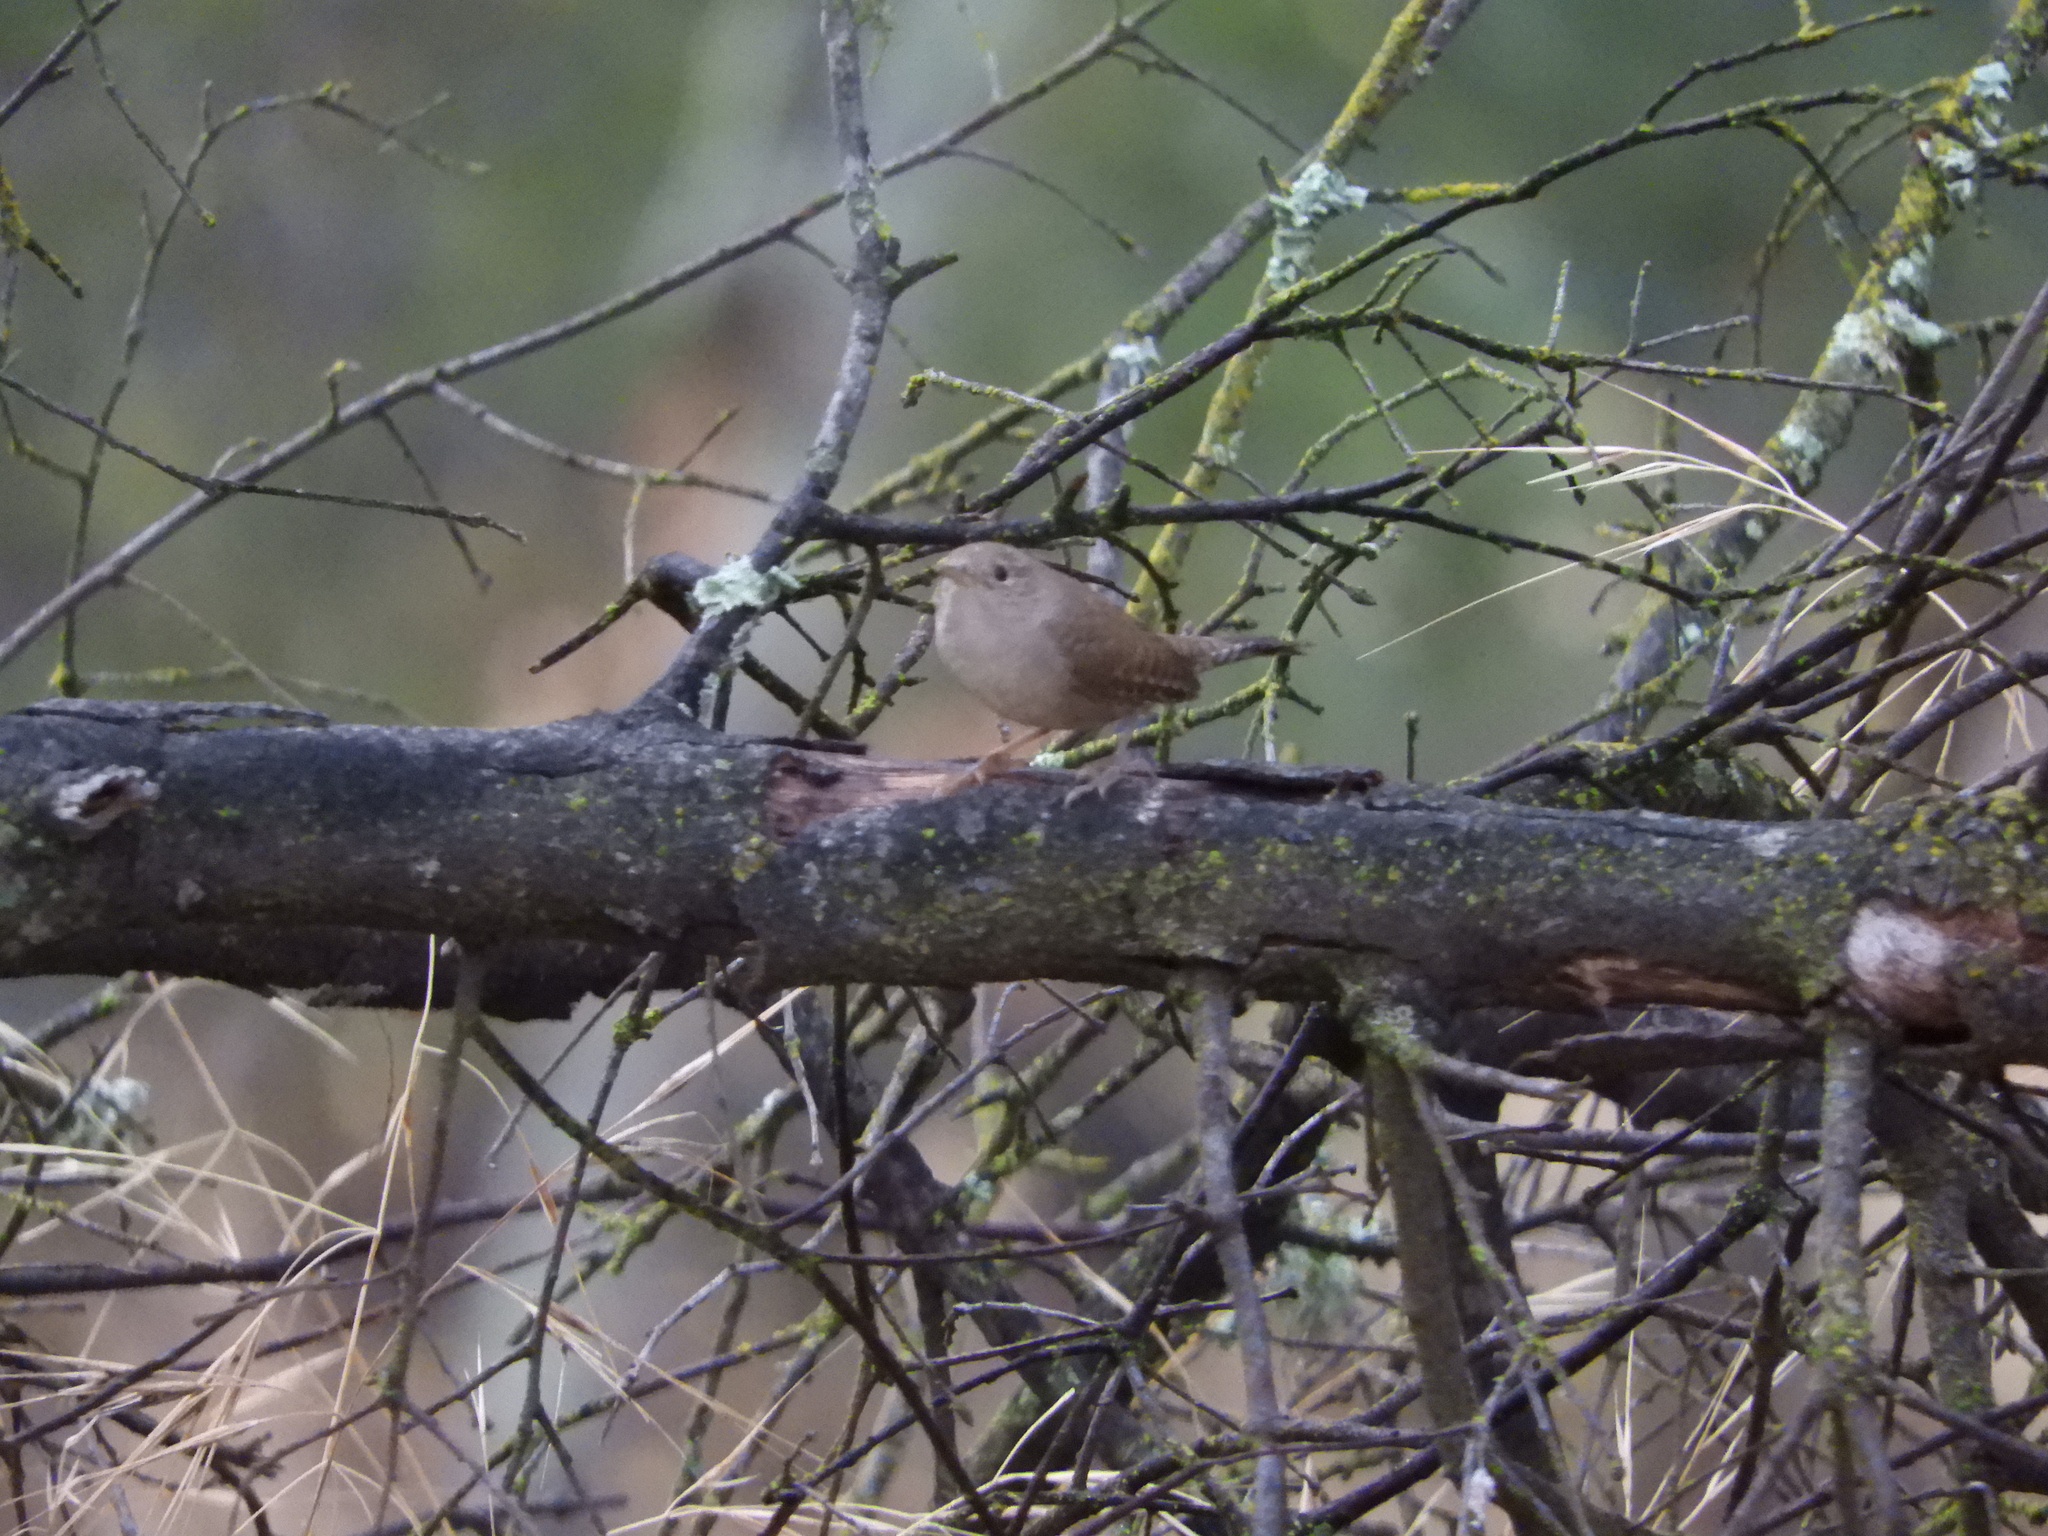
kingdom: Animalia
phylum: Chordata
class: Aves
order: Passeriformes
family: Troglodytidae
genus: Troglodytes
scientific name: Troglodytes aedon
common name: House wren
